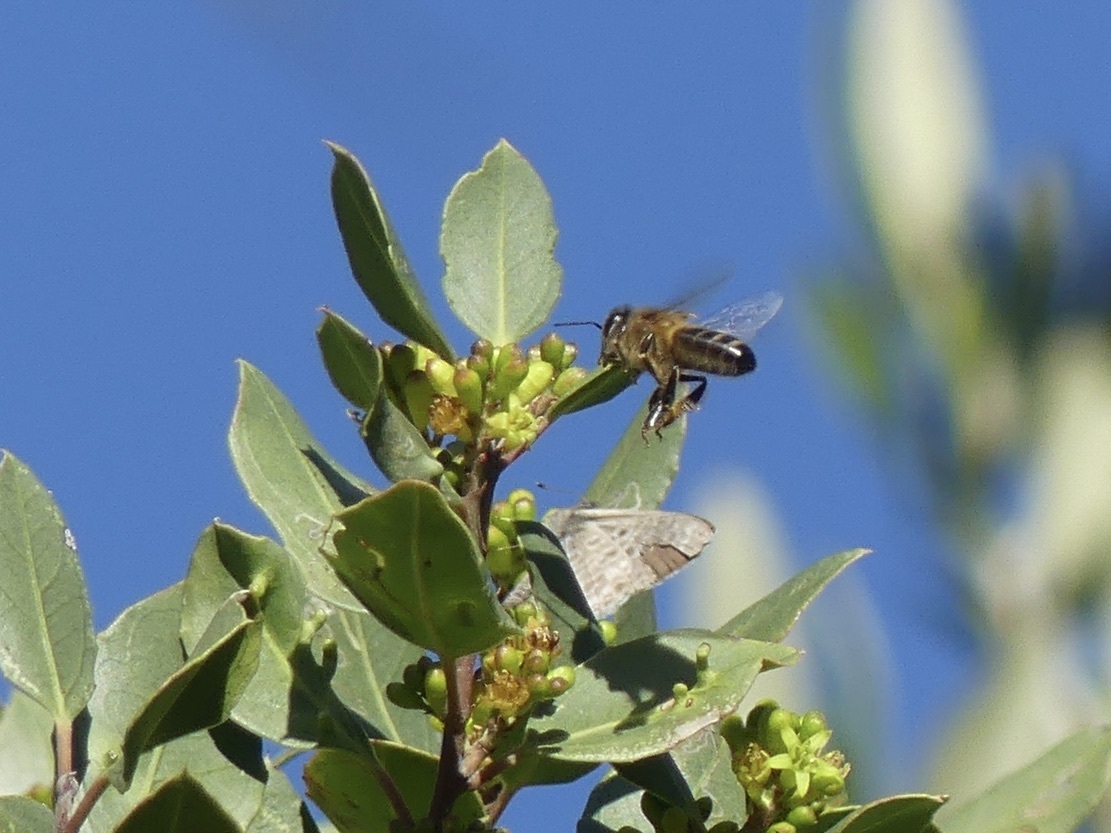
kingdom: Animalia
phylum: Arthropoda
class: Insecta
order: Hymenoptera
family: Apidae
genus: Apis
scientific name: Apis mellifera
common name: Honey bee
